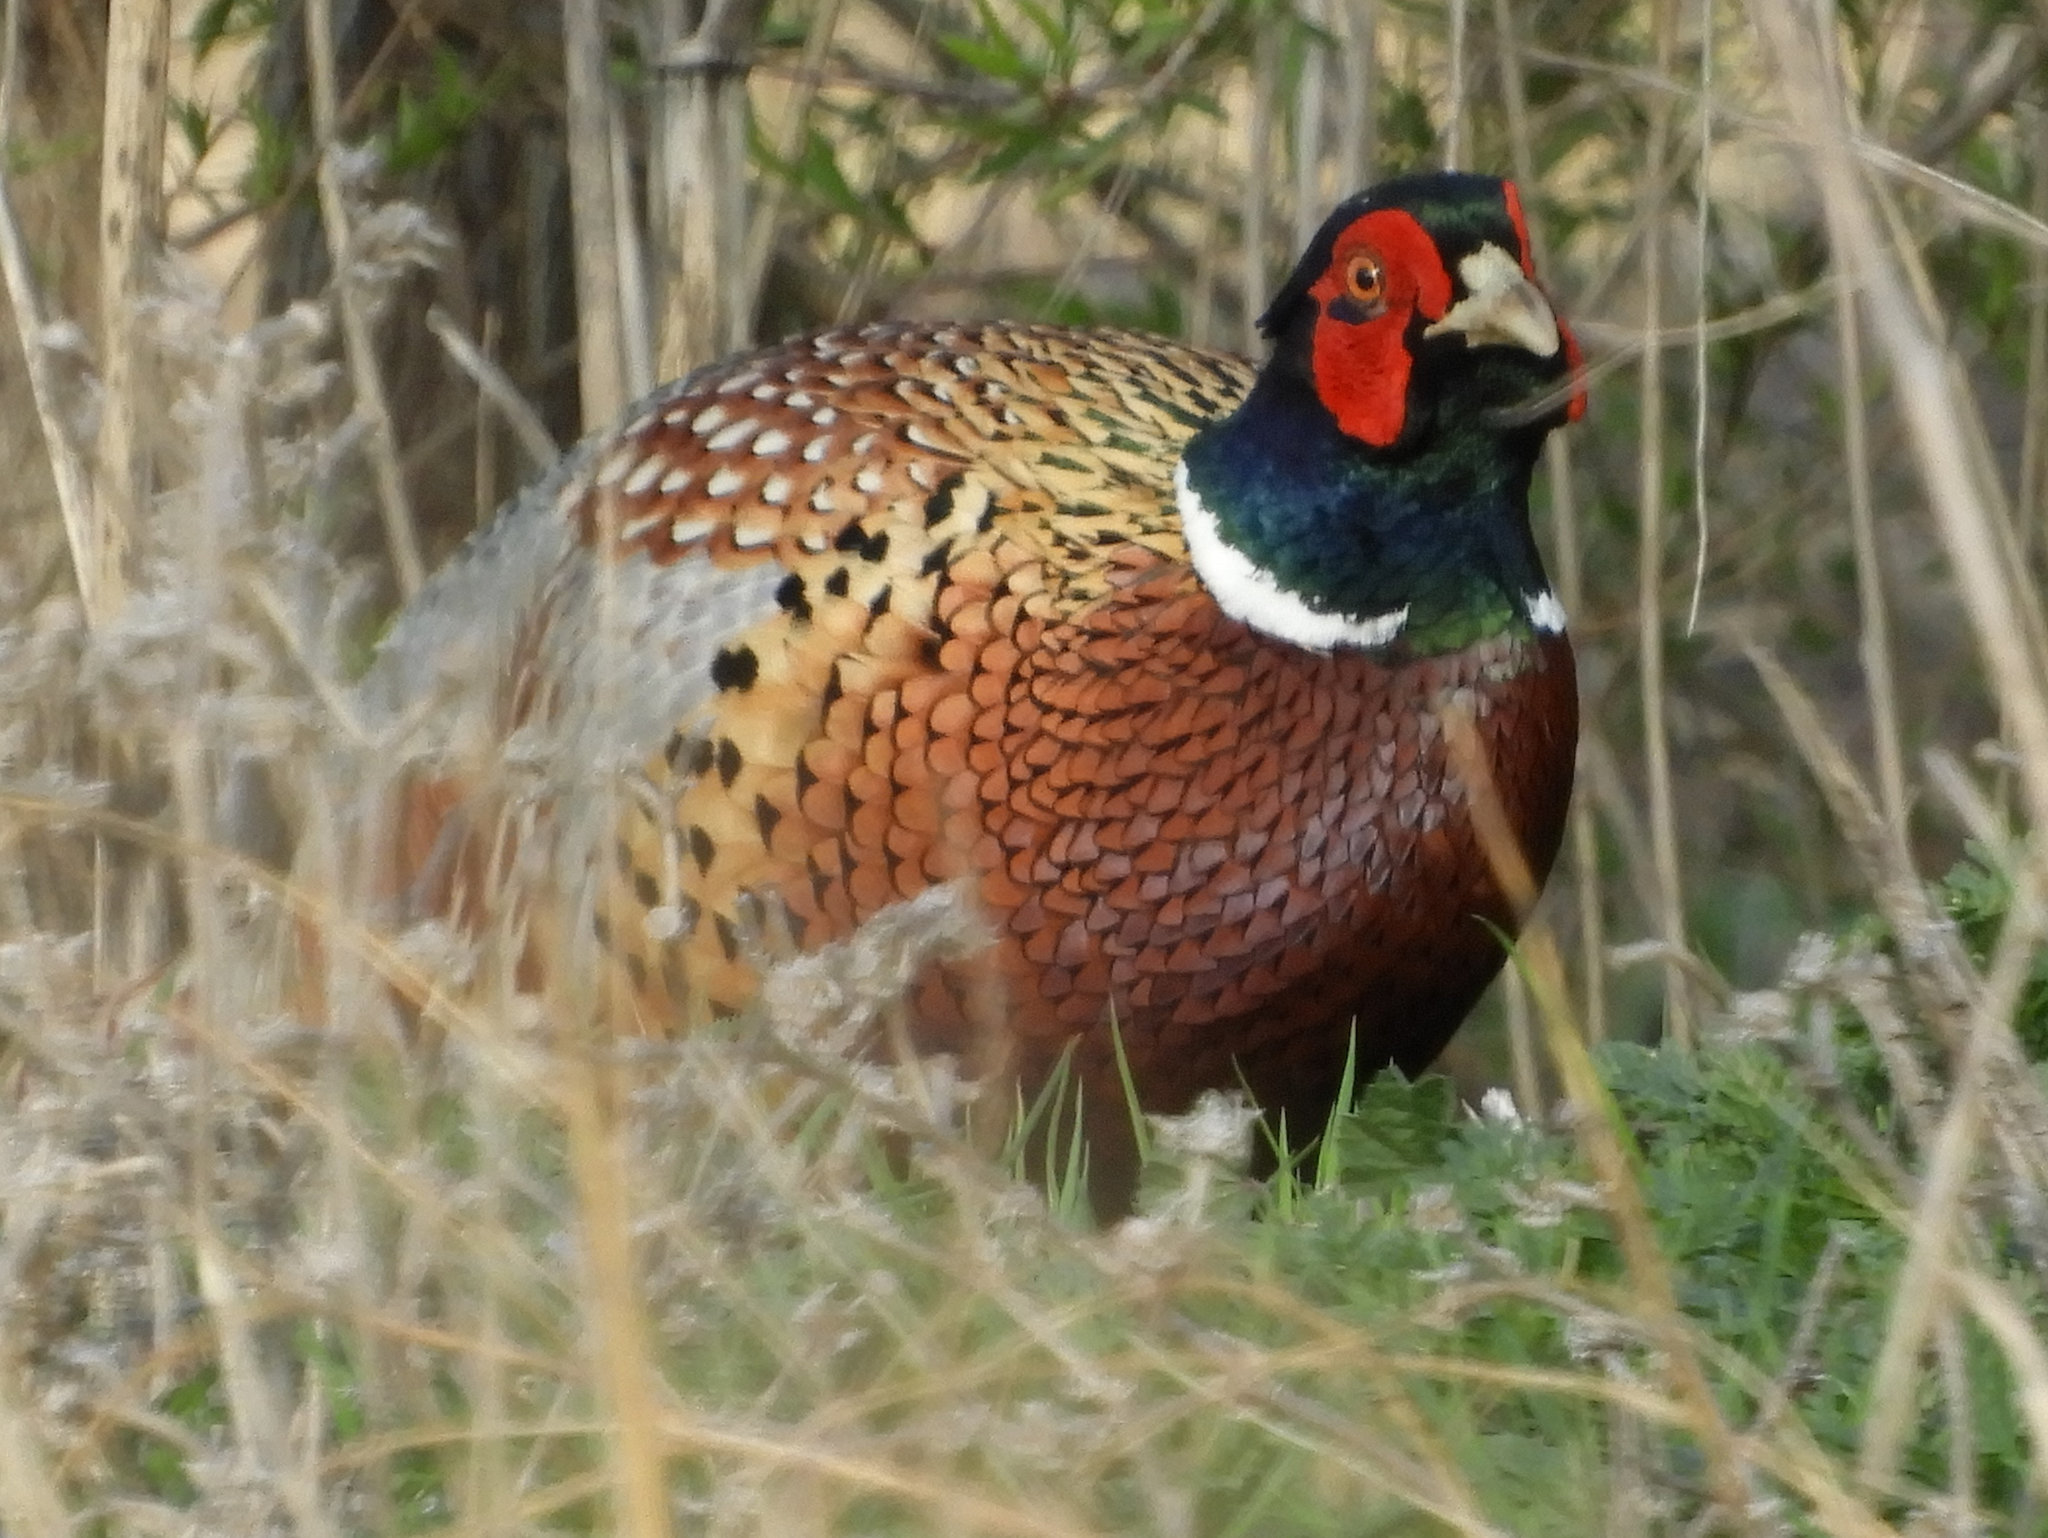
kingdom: Animalia
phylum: Chordata
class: Aves
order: Galliformes
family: Phasianidae
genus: Phasianus
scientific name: Phasianus colchicus
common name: Common pheasant
